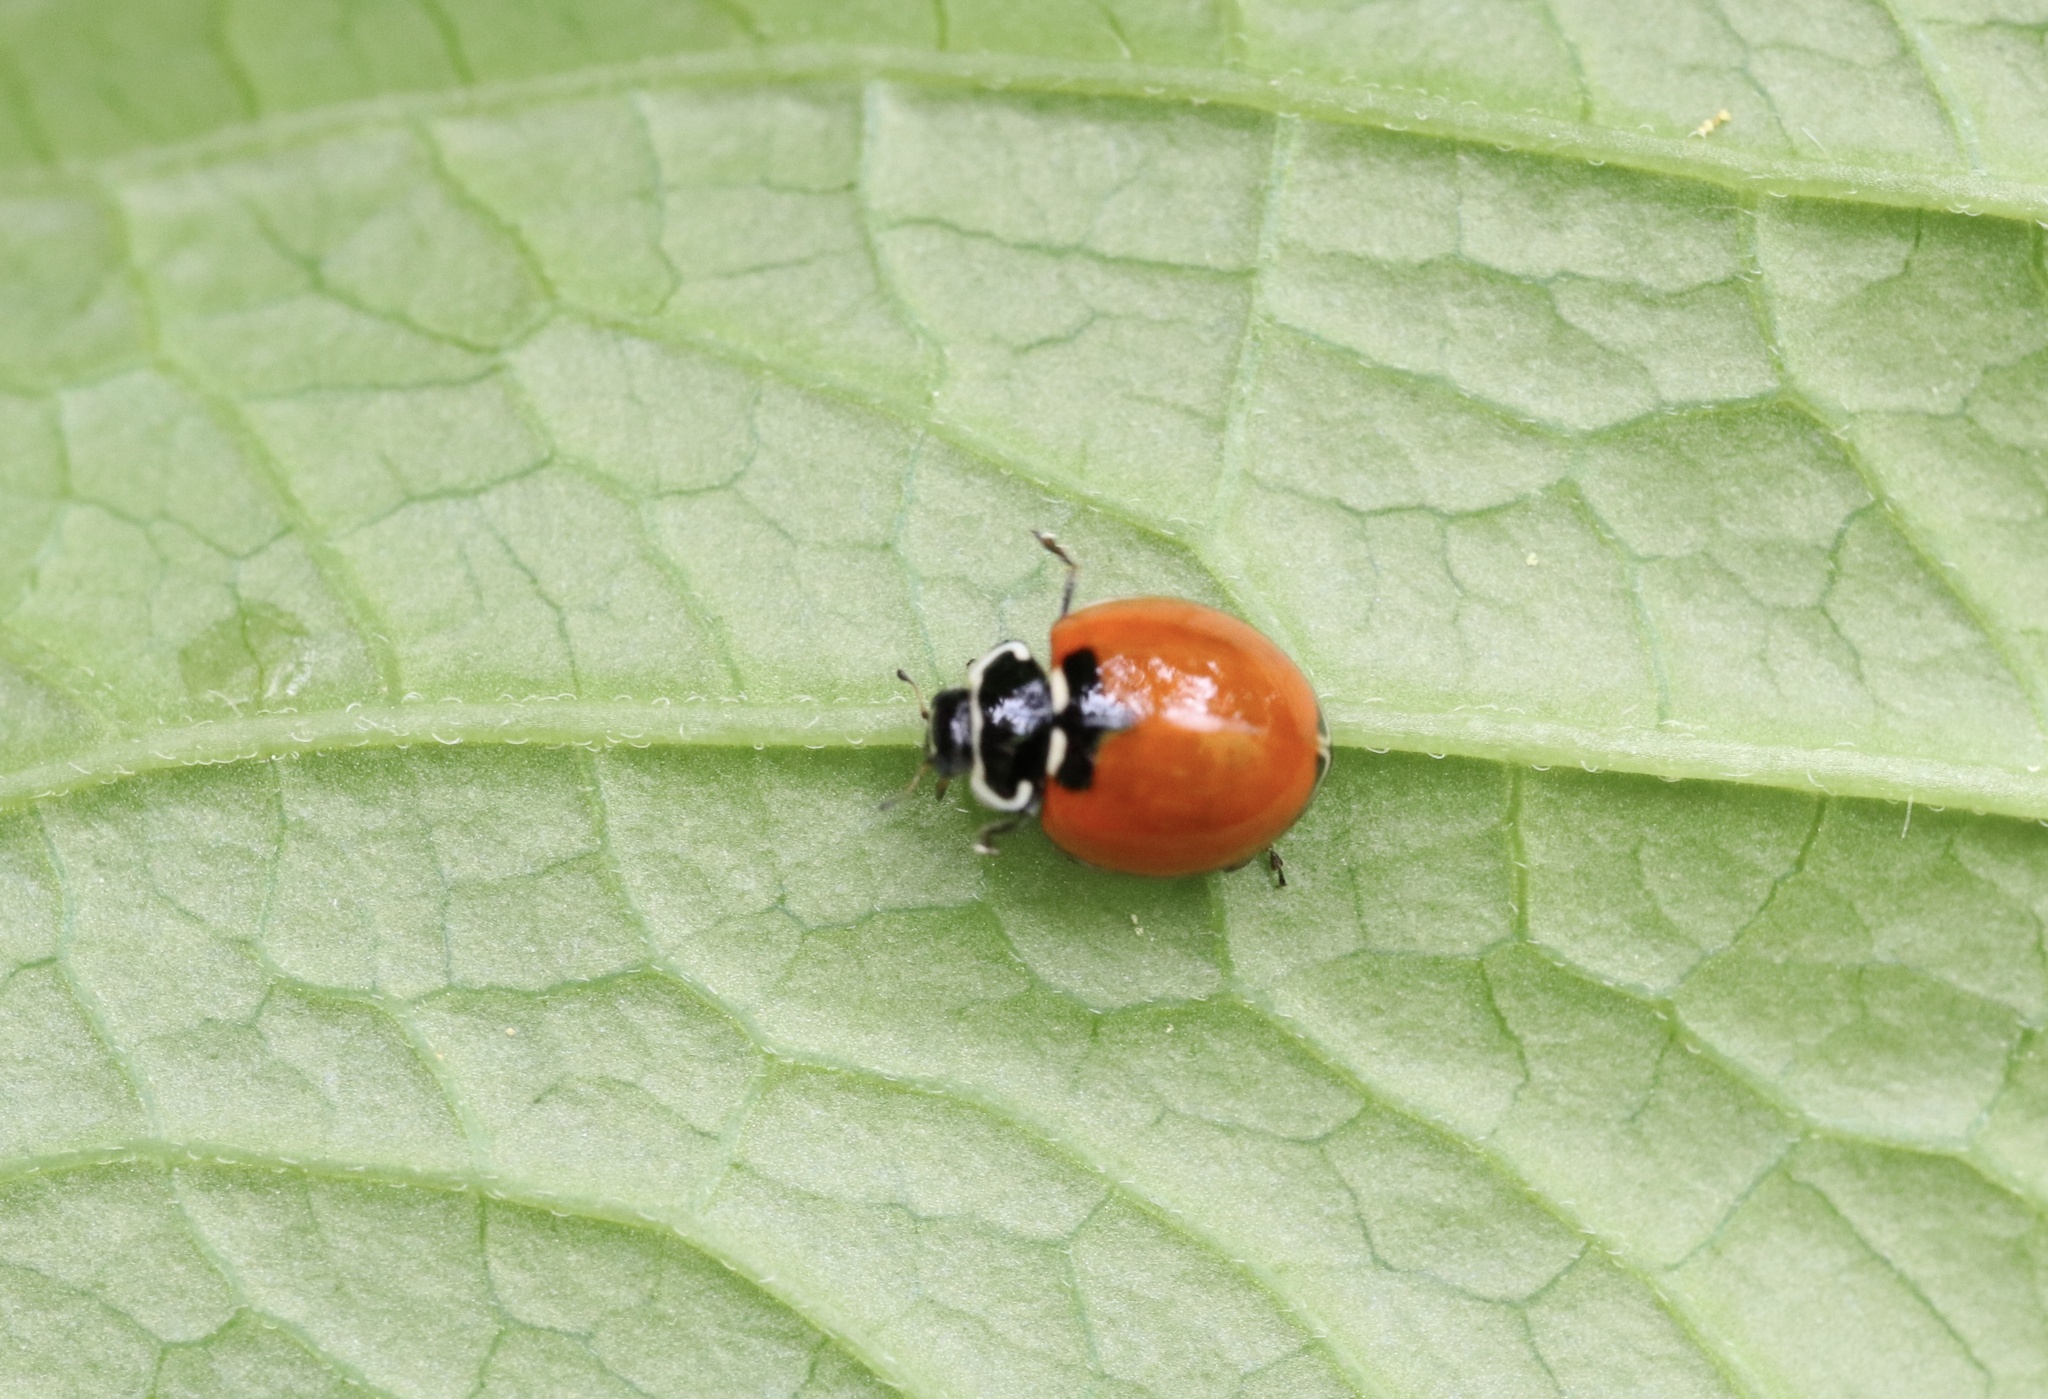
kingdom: Animalia
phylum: Arthropoda
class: Insecta
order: Coleoptera
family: Coccinellidae
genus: Adalia
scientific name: Adalia deficiens
